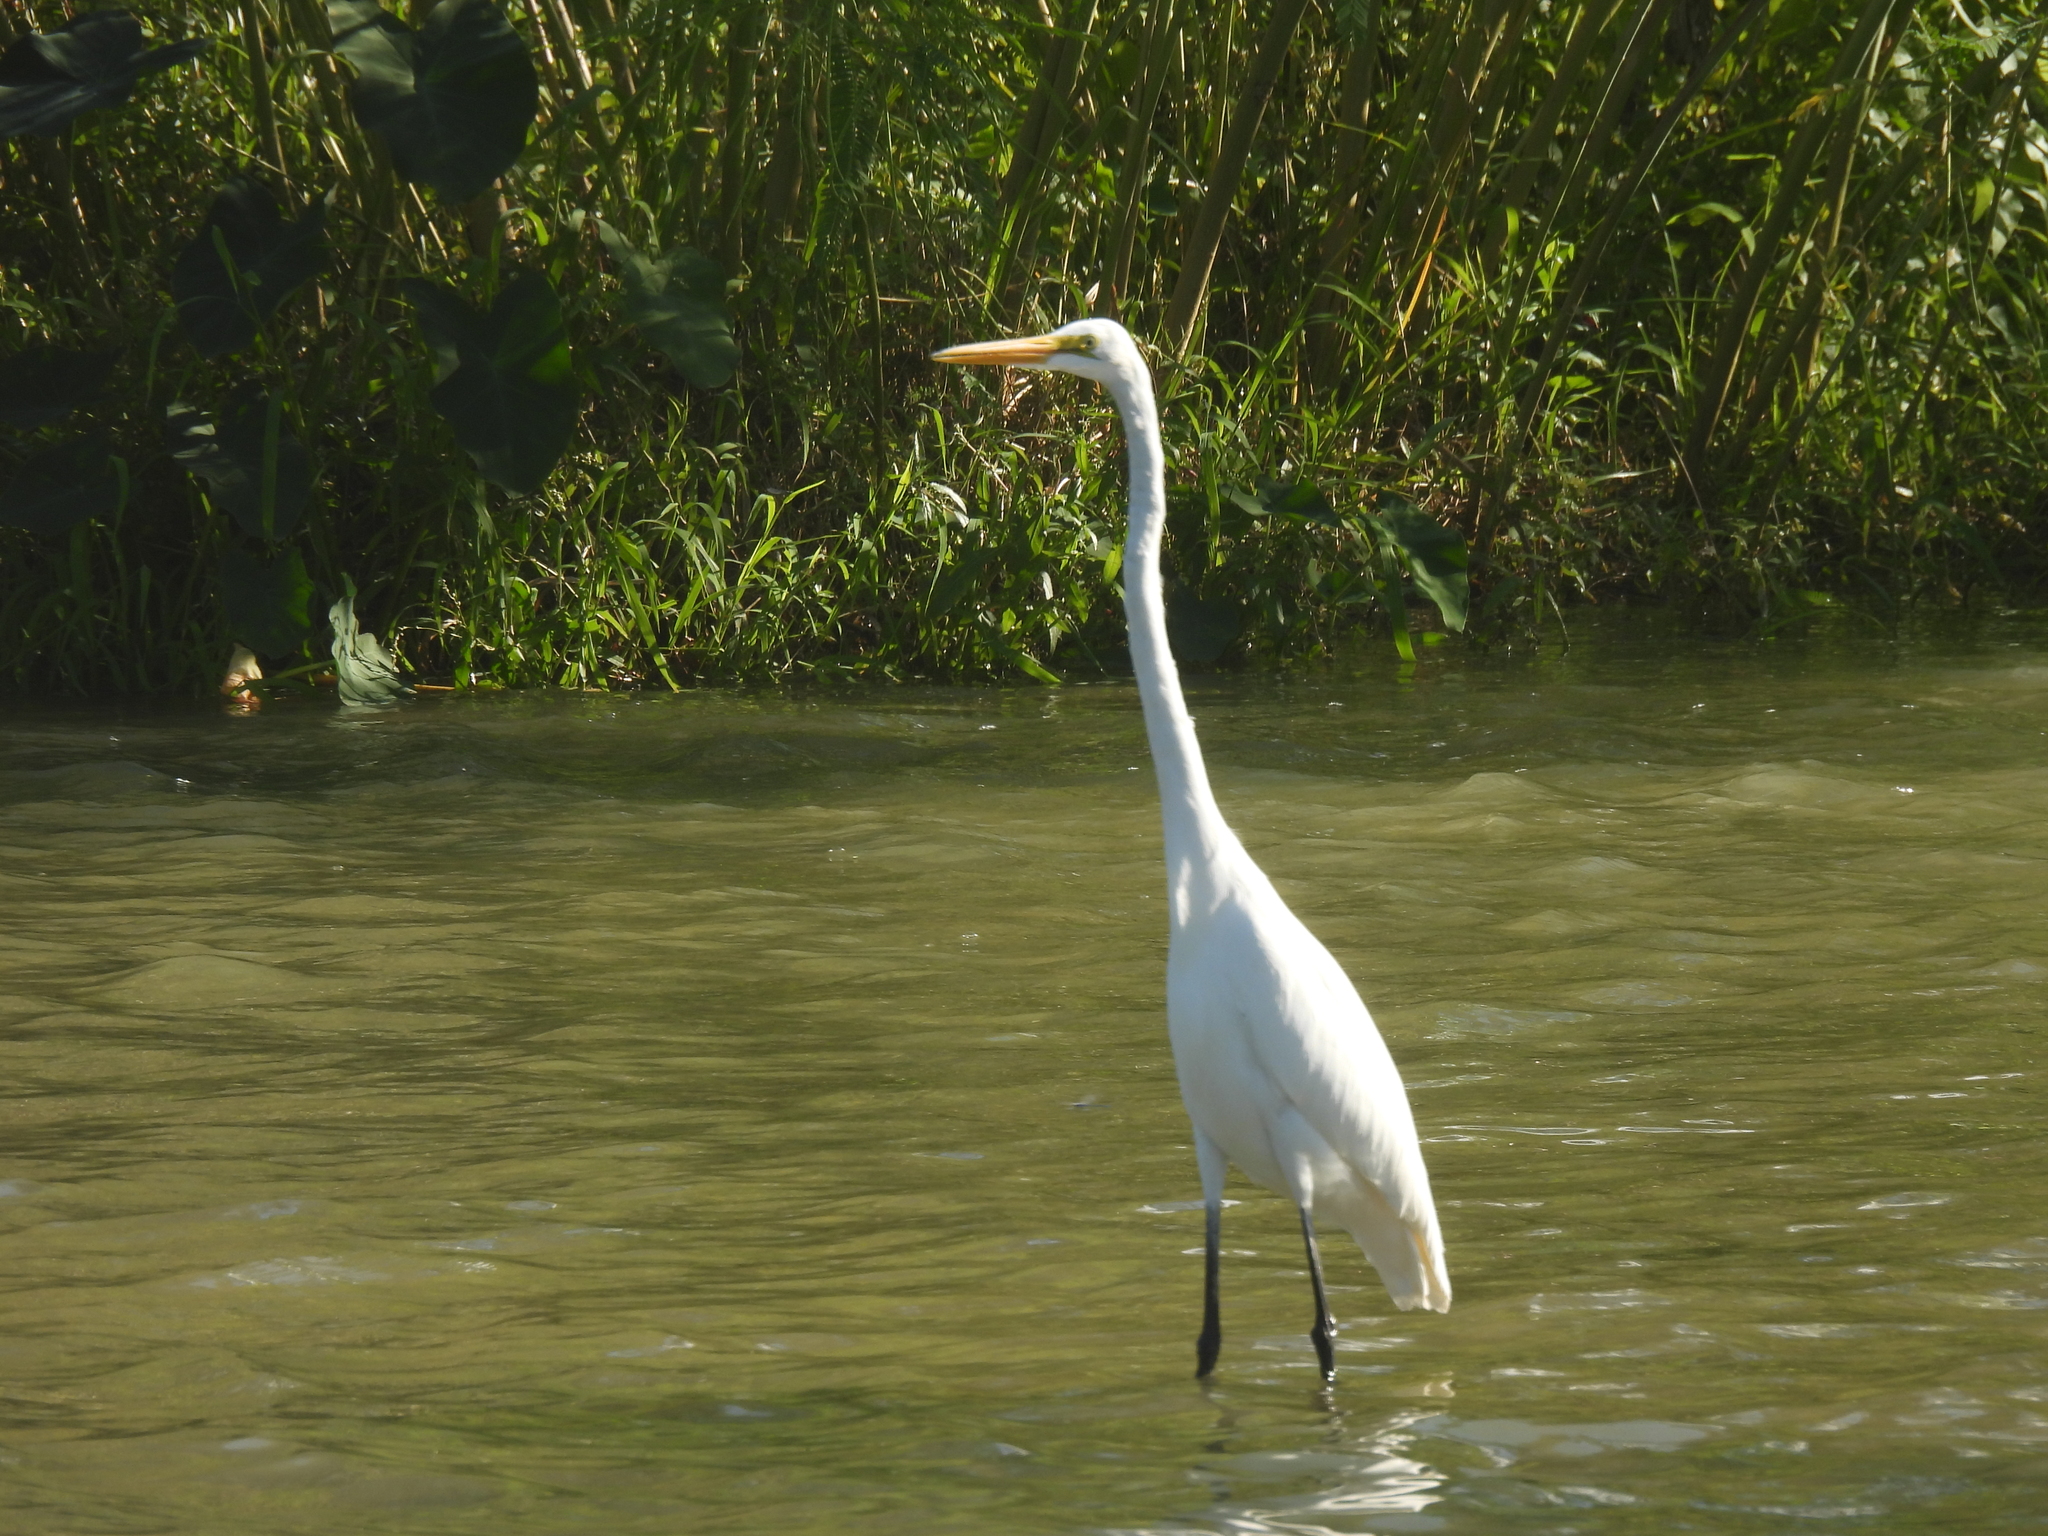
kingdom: Animalia
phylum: Chordata
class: Aves
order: Pelecaniformes
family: Ardeidae
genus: Ardea
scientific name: Ardea alba
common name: Great egret
